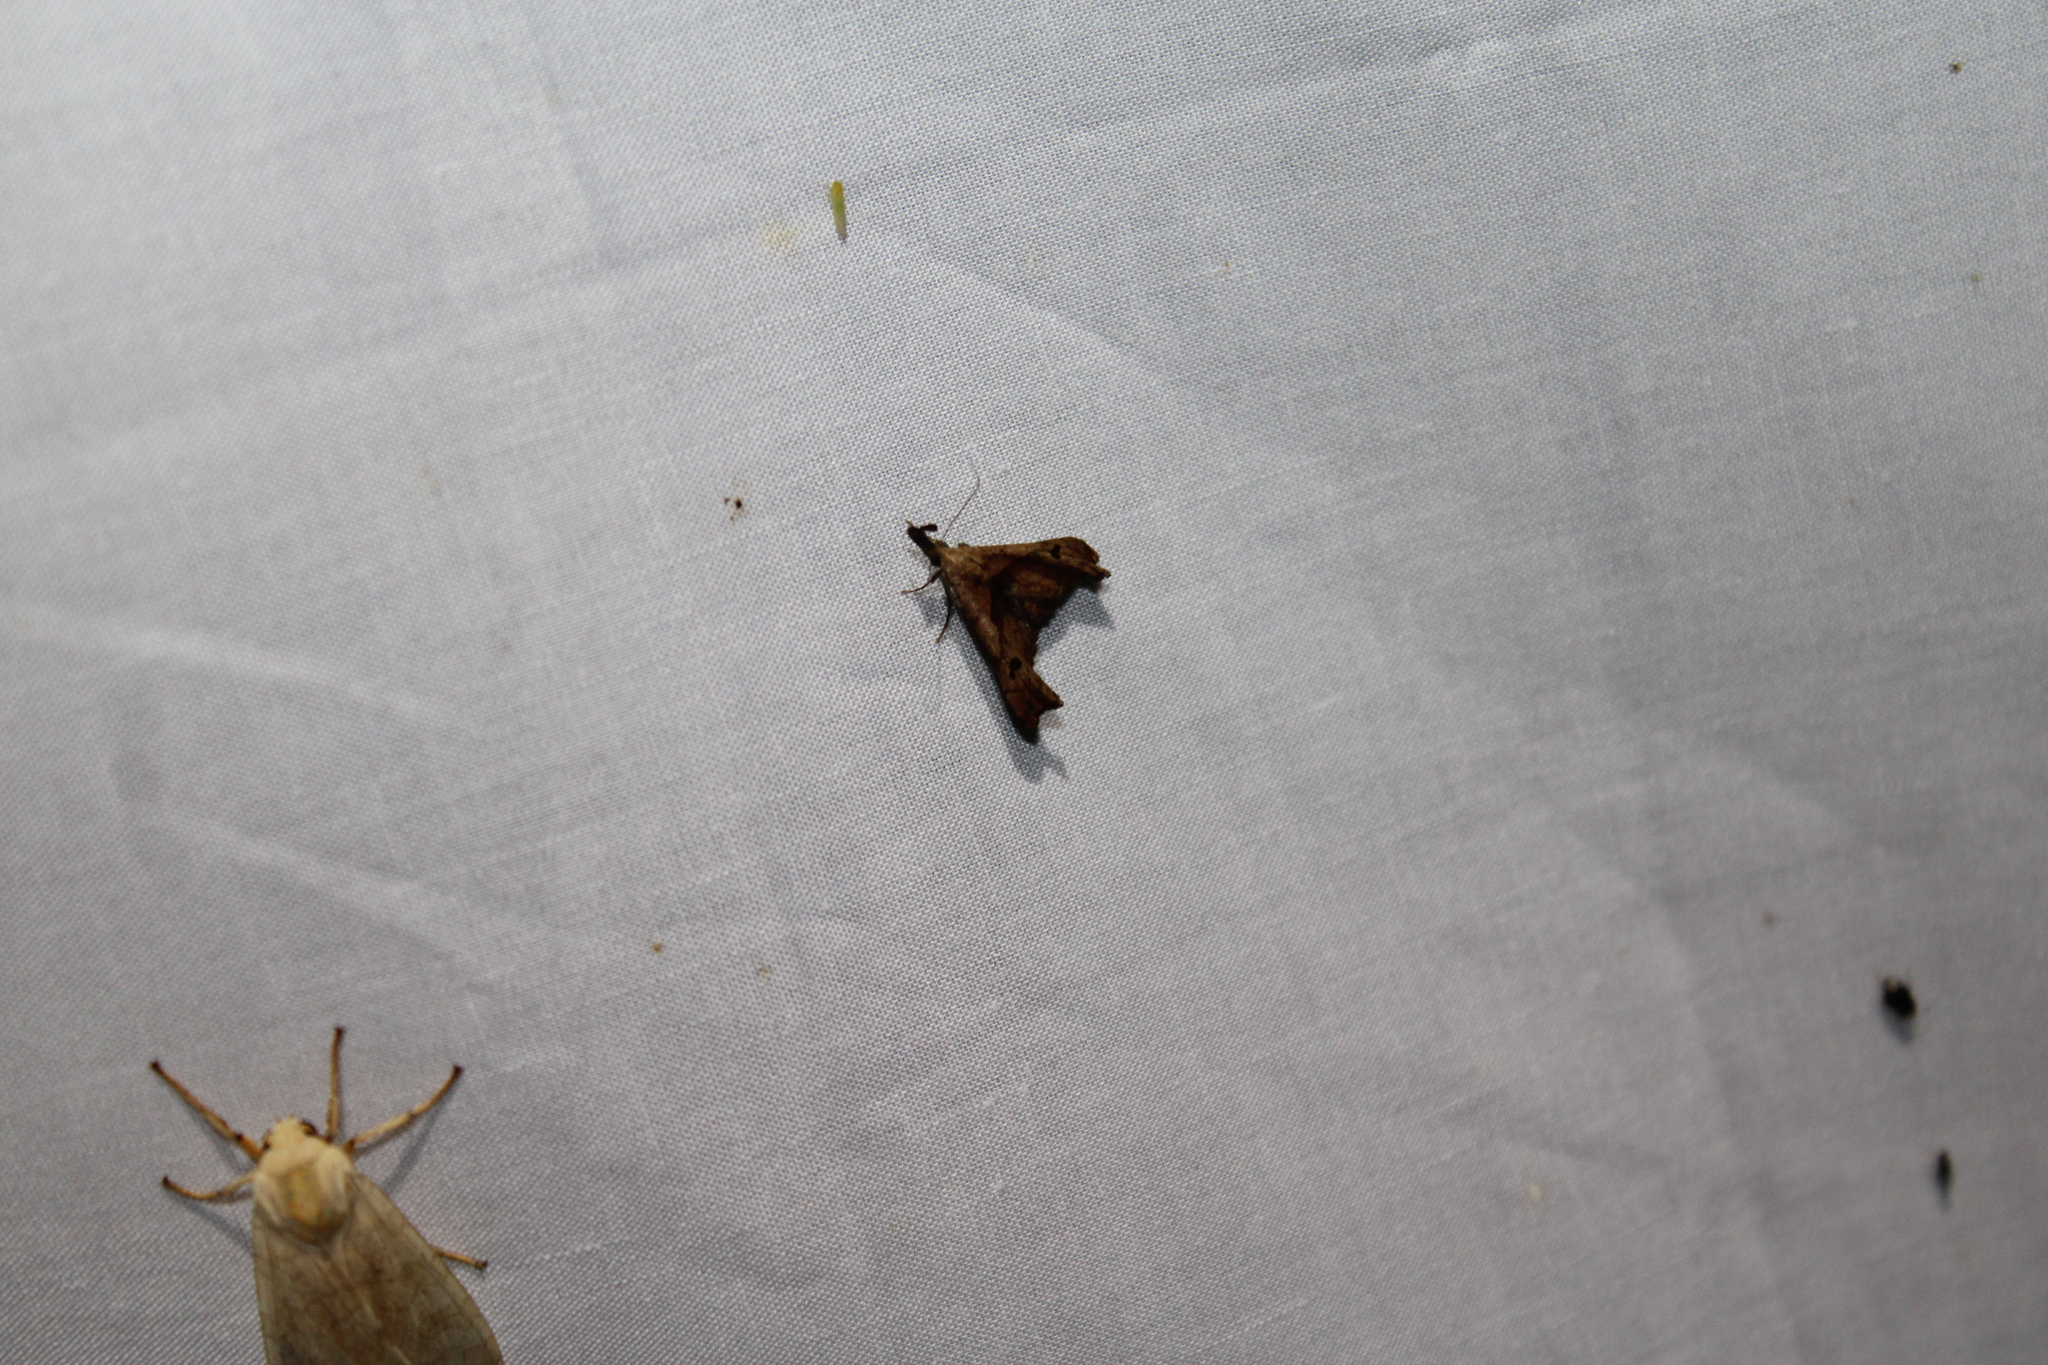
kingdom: Animalia
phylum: Arthropoda
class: Insecta
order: Lepidoptera
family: Erebidae
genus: Palthis
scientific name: Palthis angulalis
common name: Dark-spotted palthis moth
